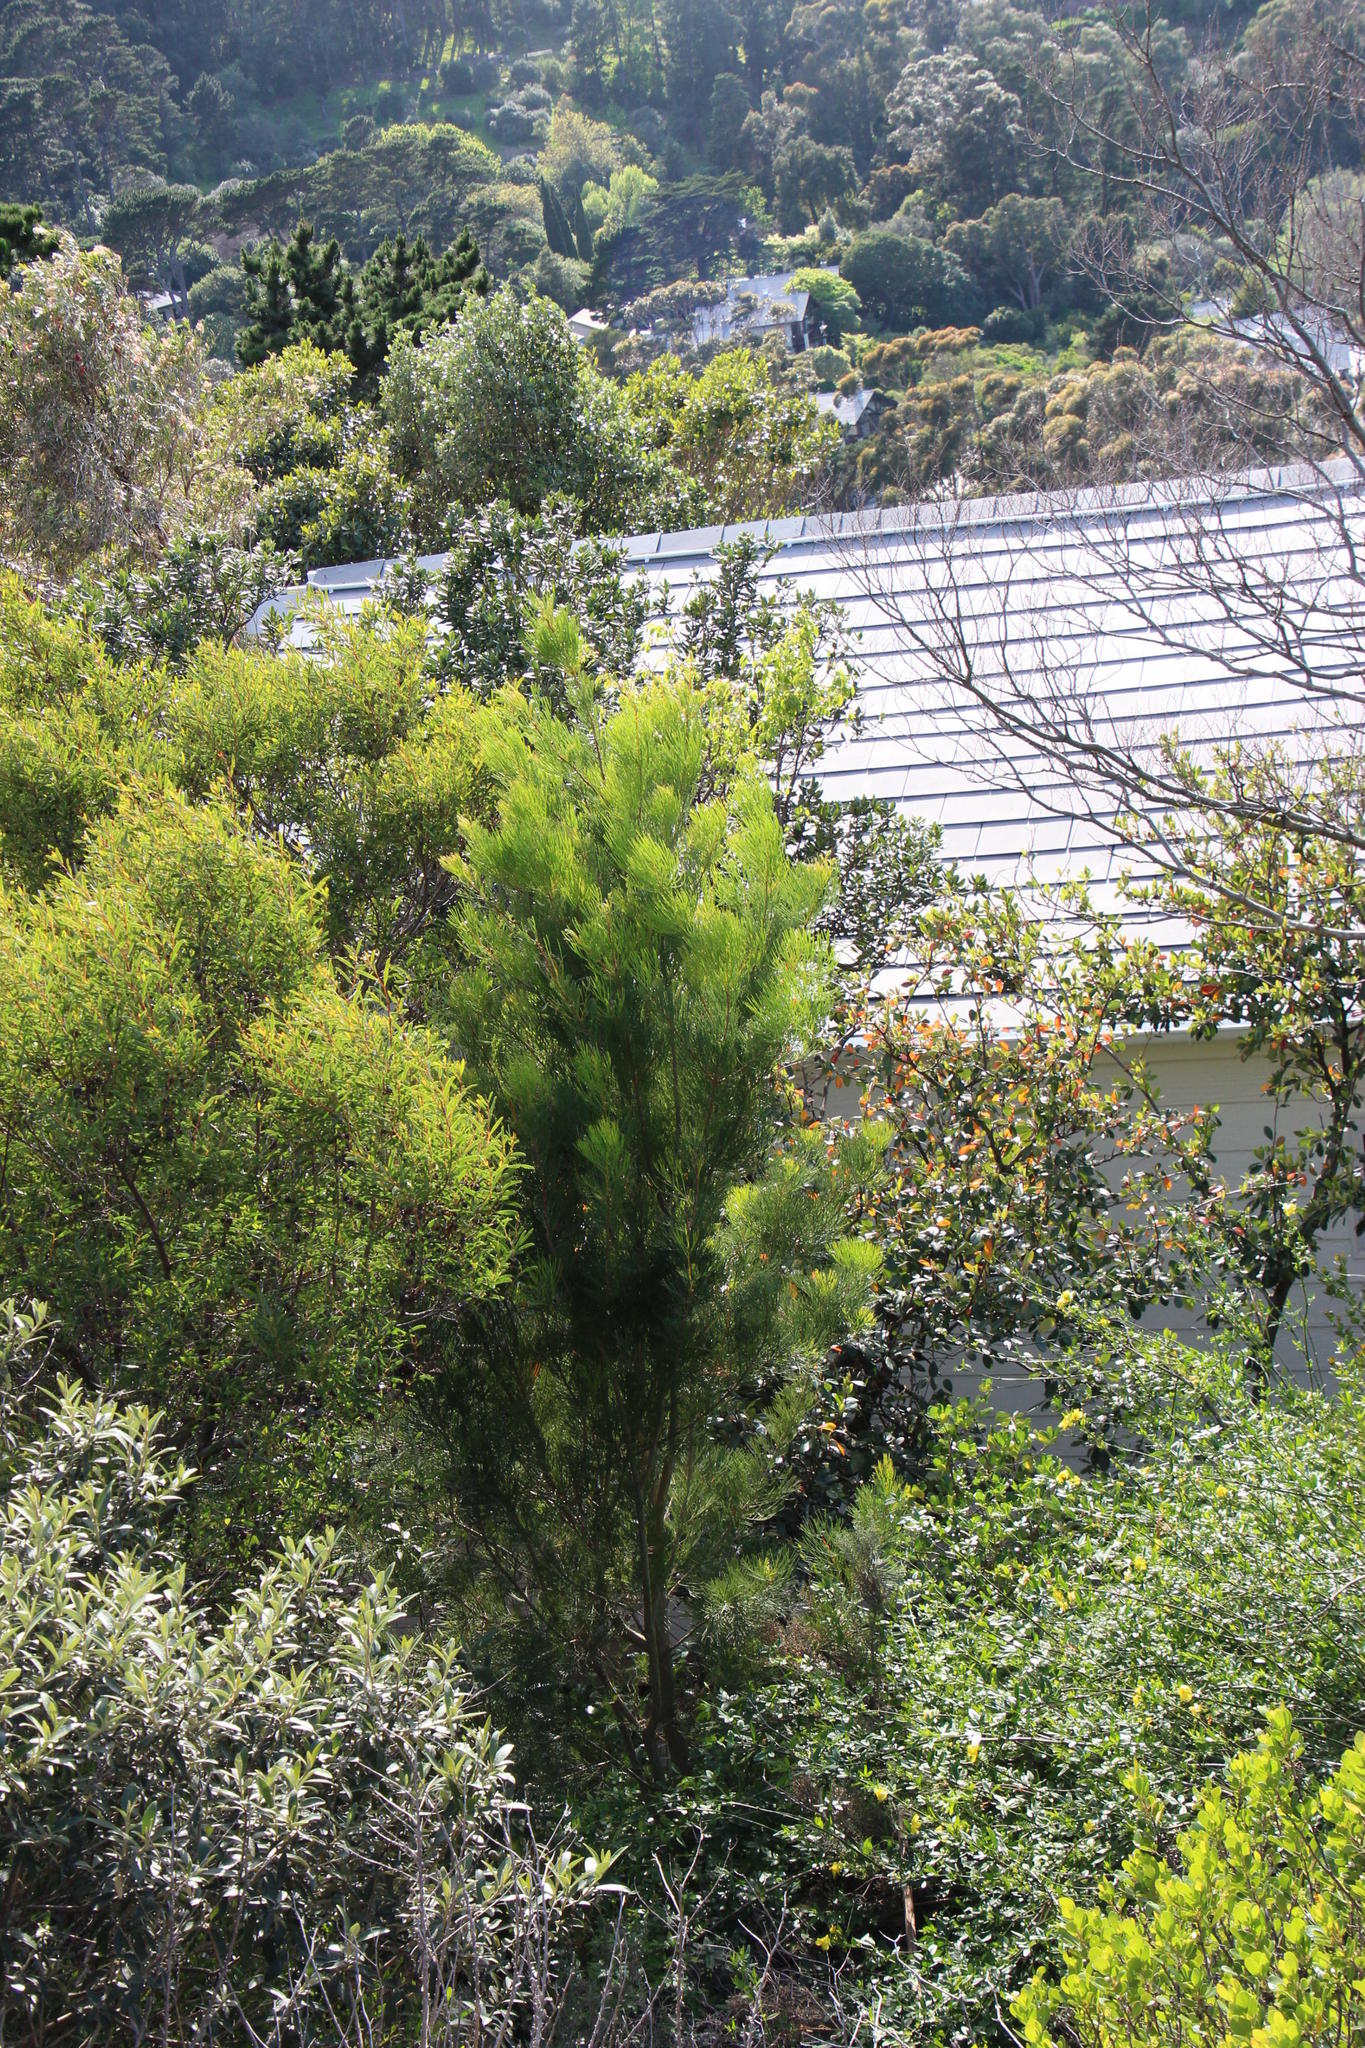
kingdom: Plantae
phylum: Tracheophyta
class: Magnoliopsida
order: Proteales
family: Proteaceae
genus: Hakea
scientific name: Hakea drupacea
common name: Sweet hakea
